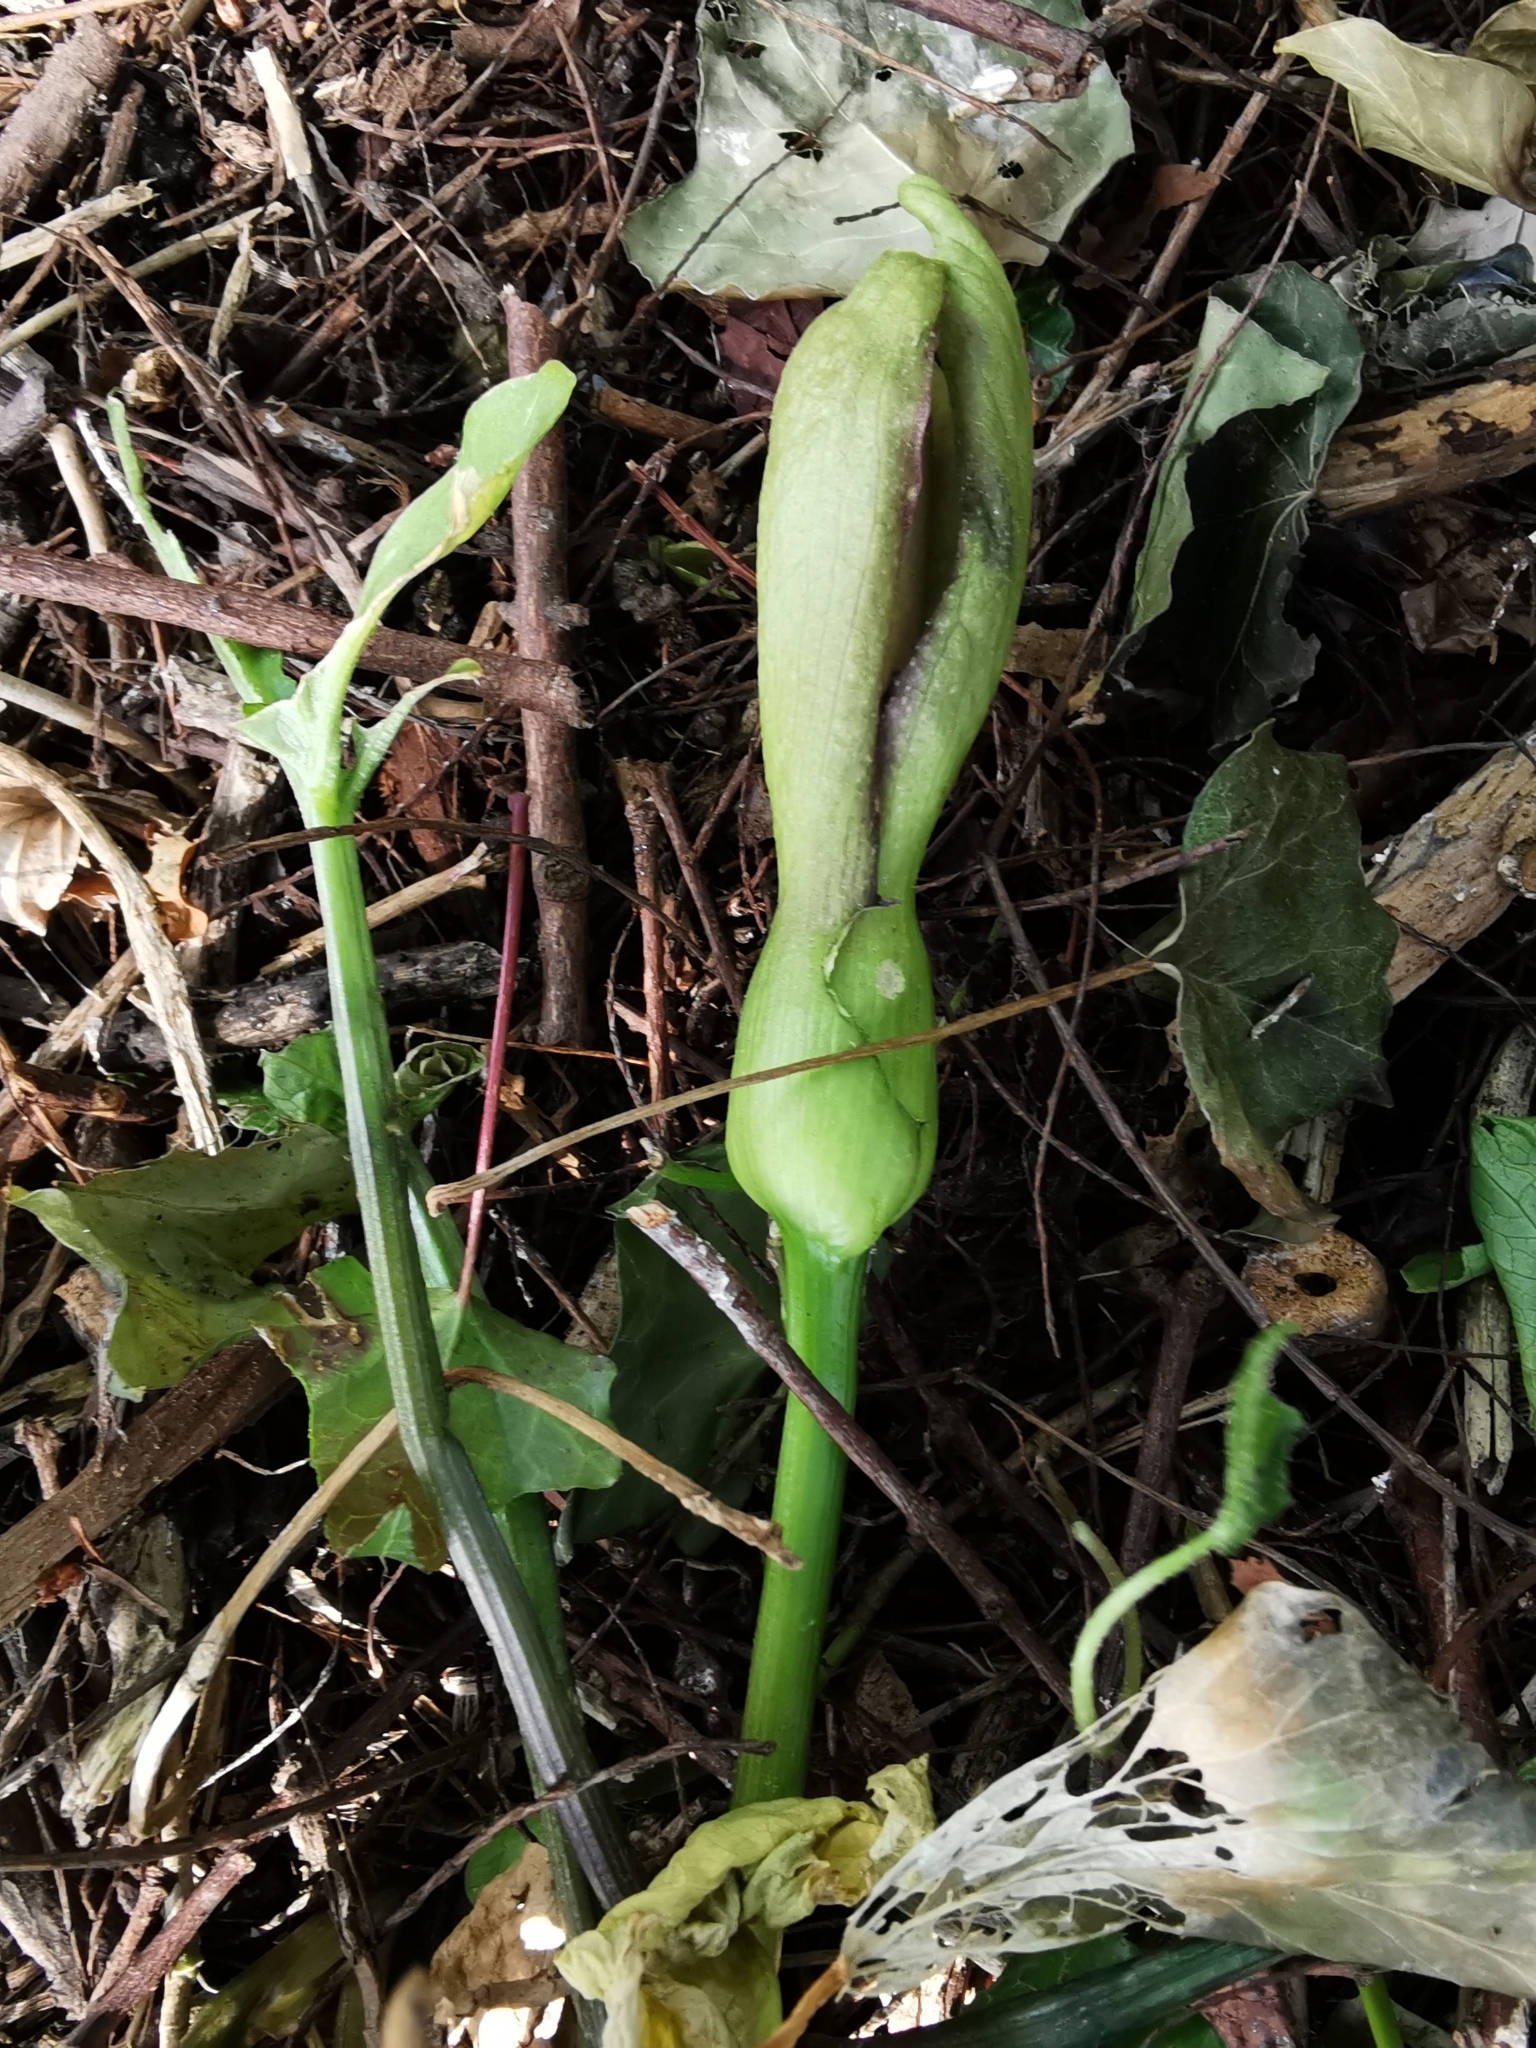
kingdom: Plantae
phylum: Tracheophyta
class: Liliopsida
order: Alismatales
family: Araceae
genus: Arum
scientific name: Arum maculatum
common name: Lords-and-ladies
